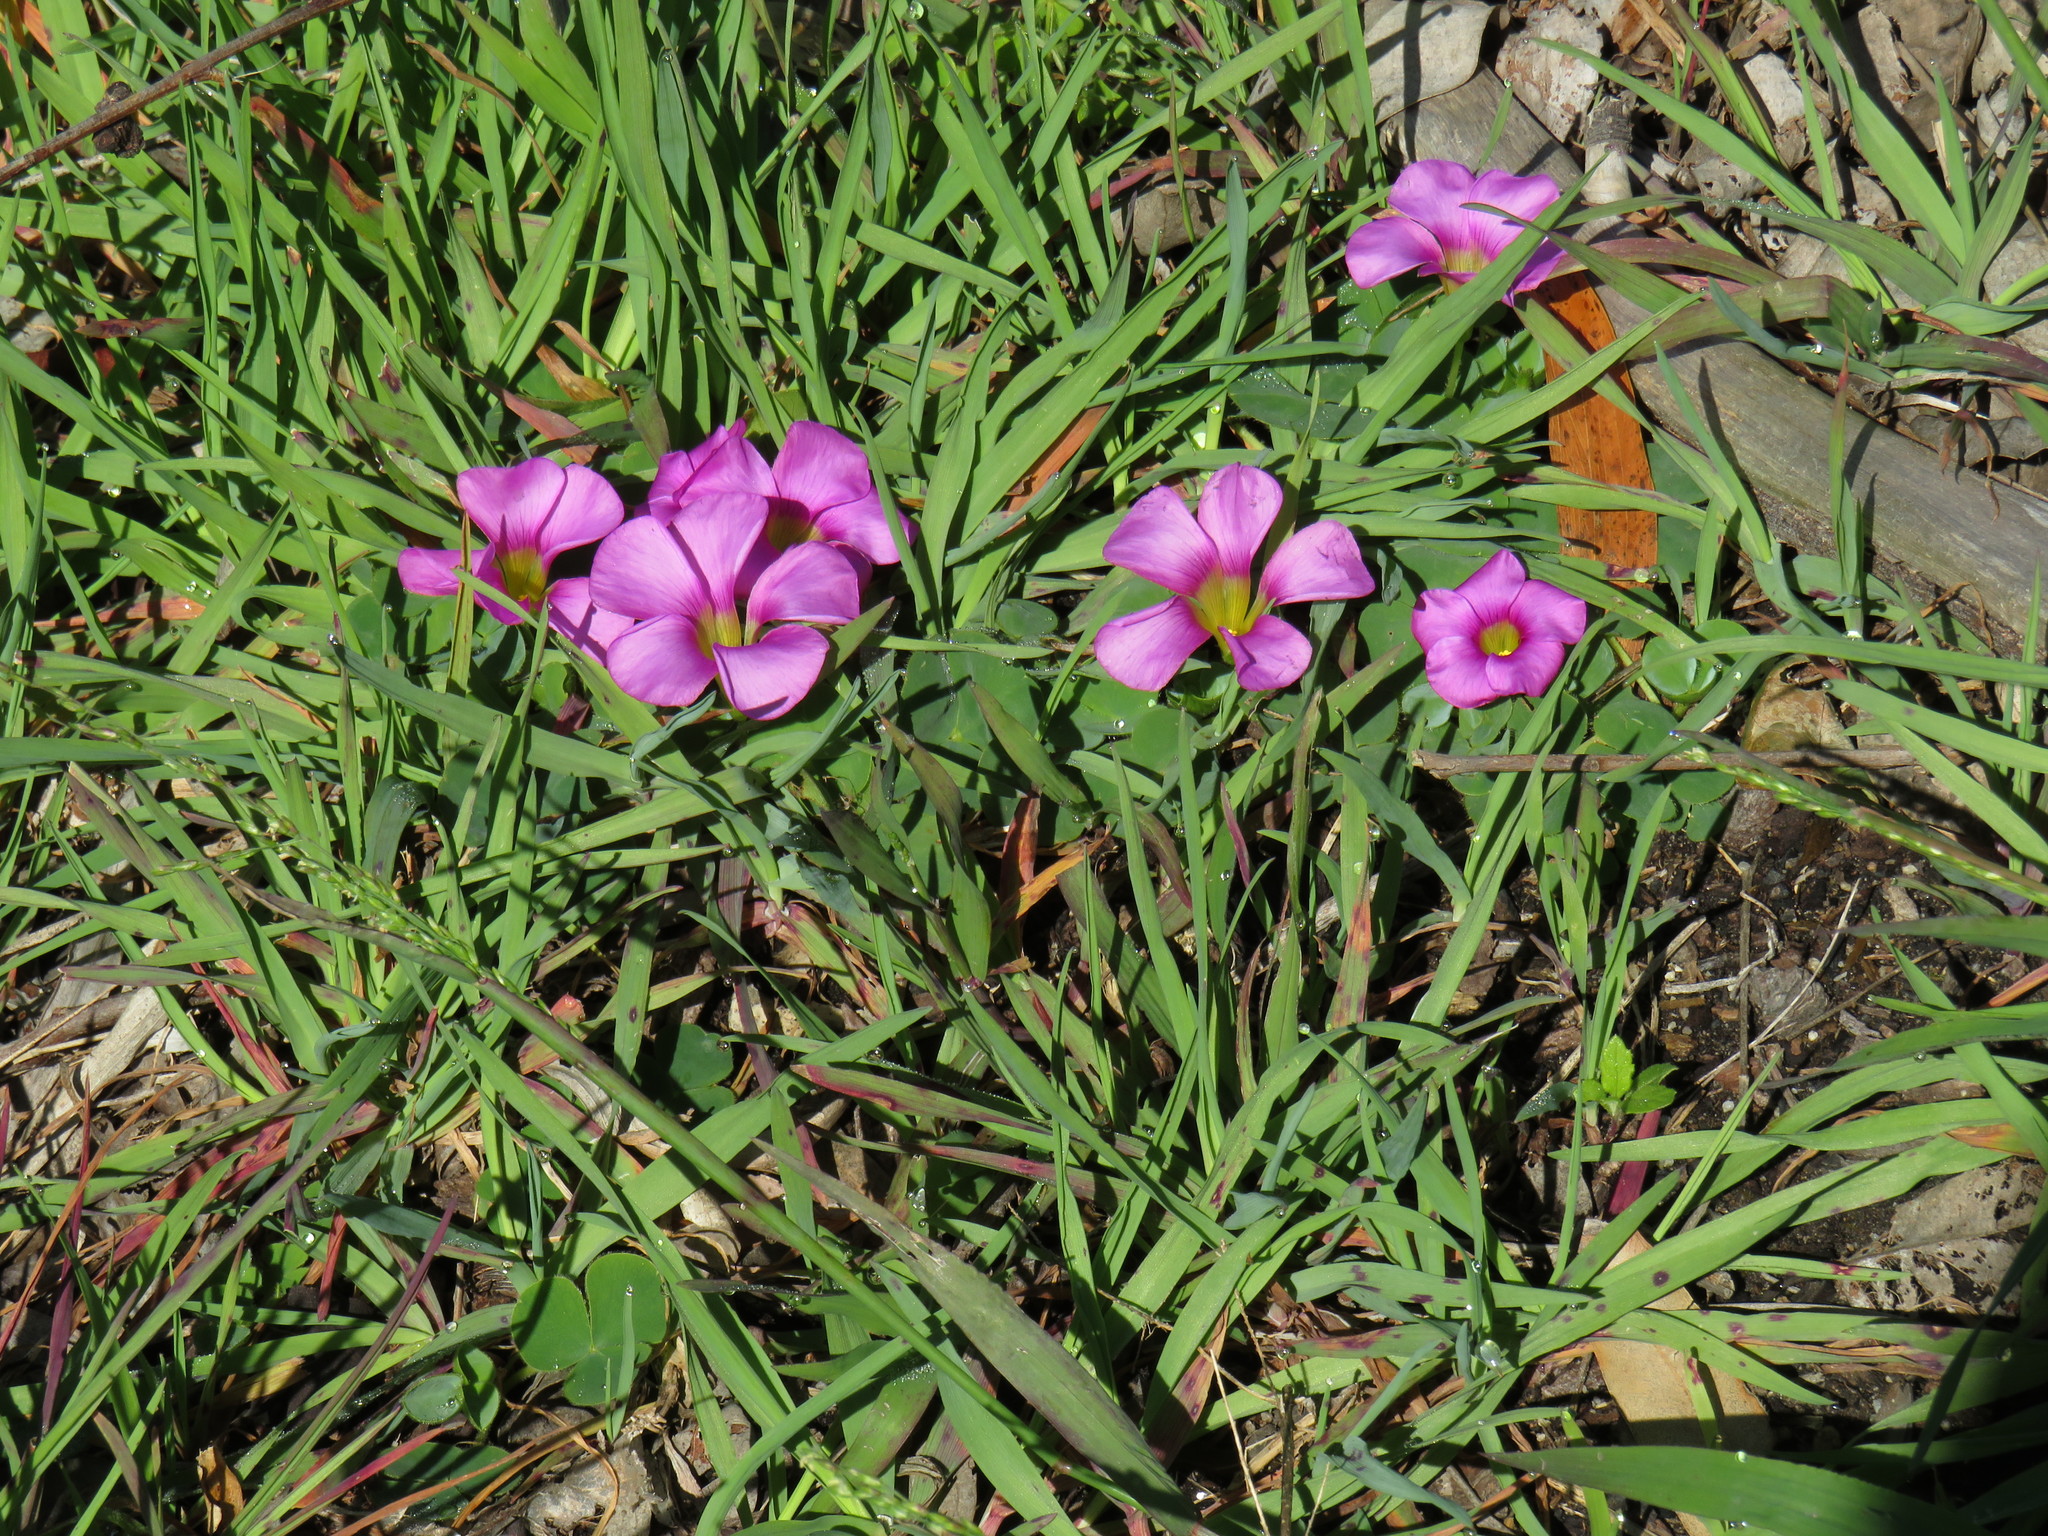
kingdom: Plantae
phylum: Tracheophyta
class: Magnoliopsida
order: Oxalidales
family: Oxalidaceae
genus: Oxalis
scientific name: Oxalis purpurea
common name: Purple woodsorrel
